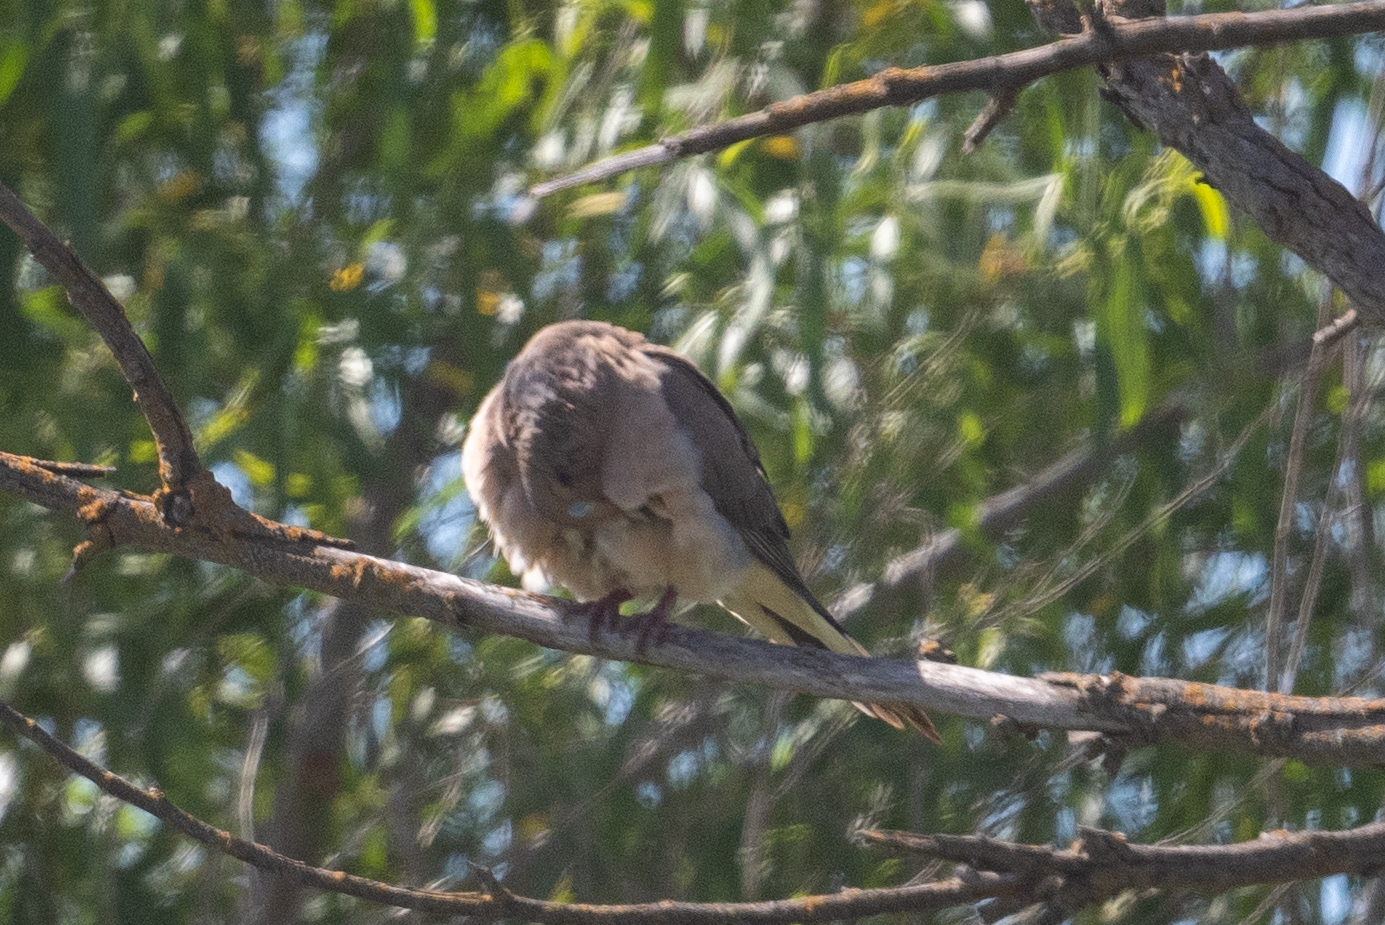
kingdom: Animalia
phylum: Chordata
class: Aves
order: Columbiformes
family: Columbidae
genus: Zenaida
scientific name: Zenaida macroura
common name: Mourning dove
